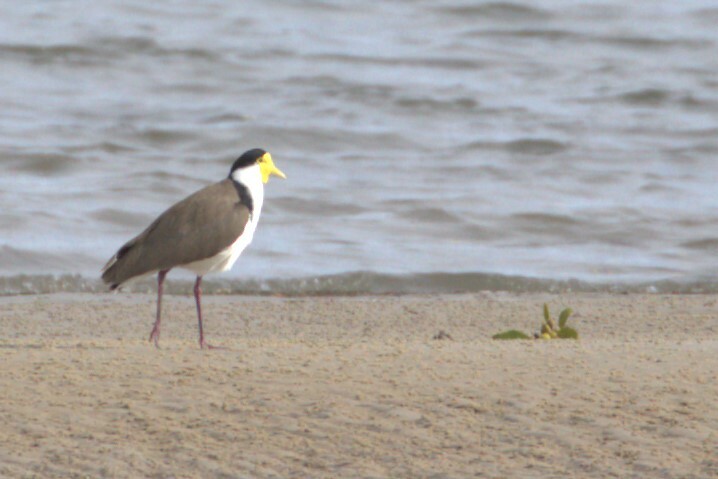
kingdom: Animalia
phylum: Chordata
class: Aves
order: Charadriiformes
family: Charadriidae
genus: Vanellus
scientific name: Vanellus miles
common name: Masked lapwing
